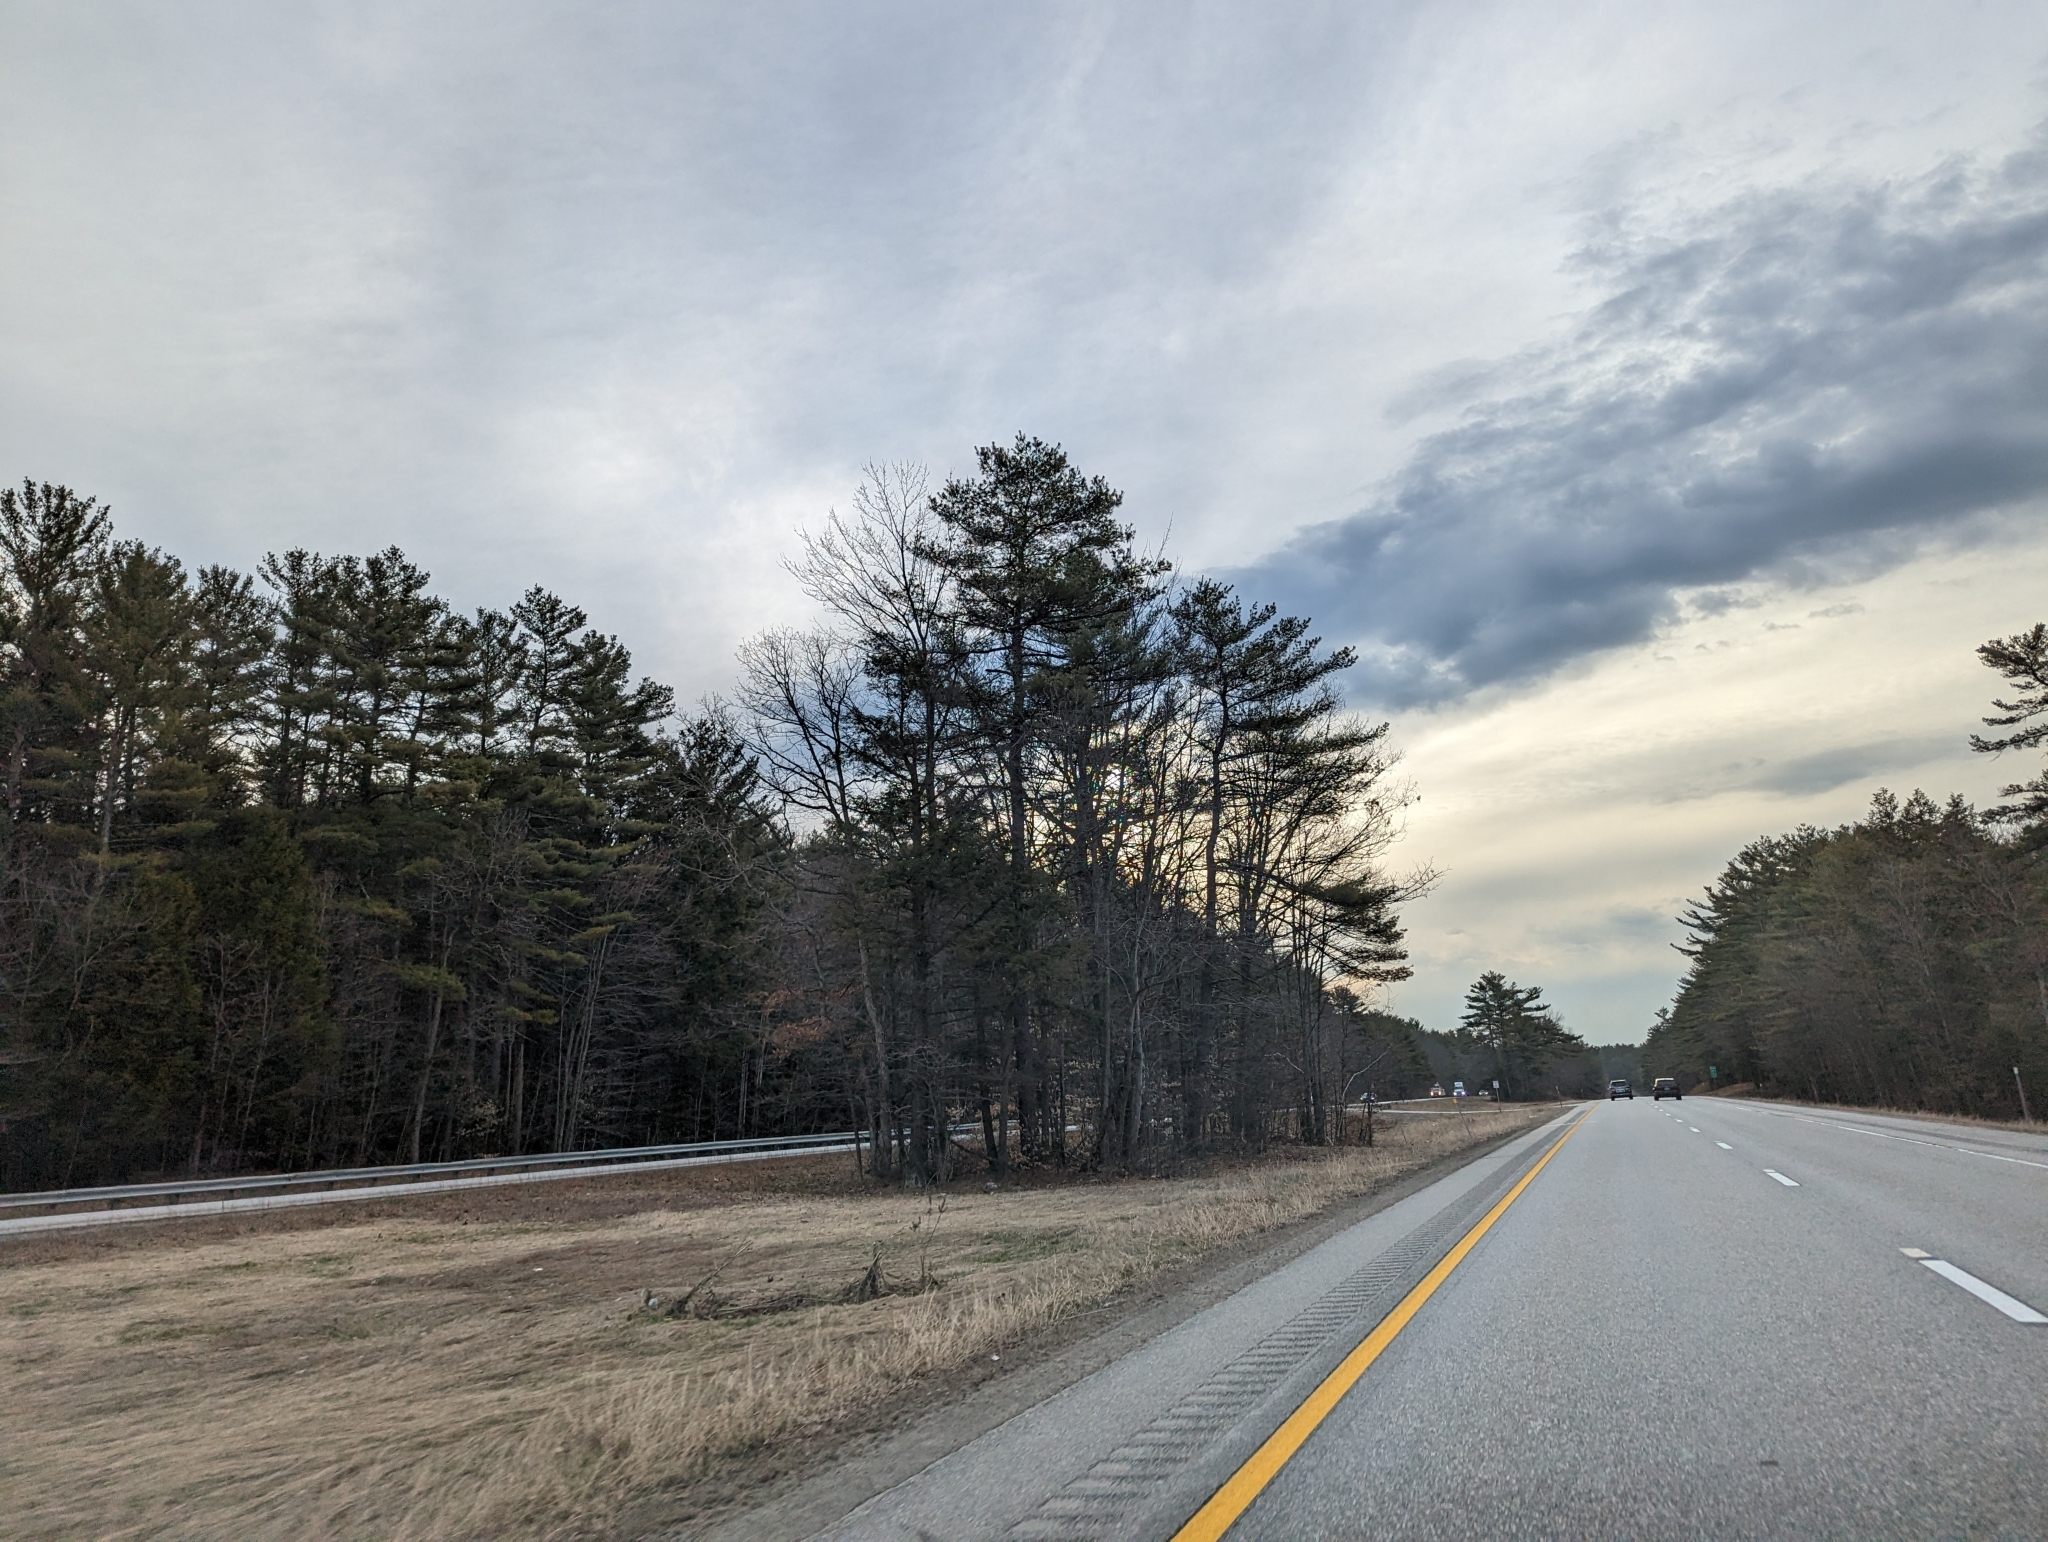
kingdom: Plantae
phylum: Tracheophyta
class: Pinopsida
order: Pinales
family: Pinaceae
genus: Pinus
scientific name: Pinus strobus
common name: Weymouth pine
